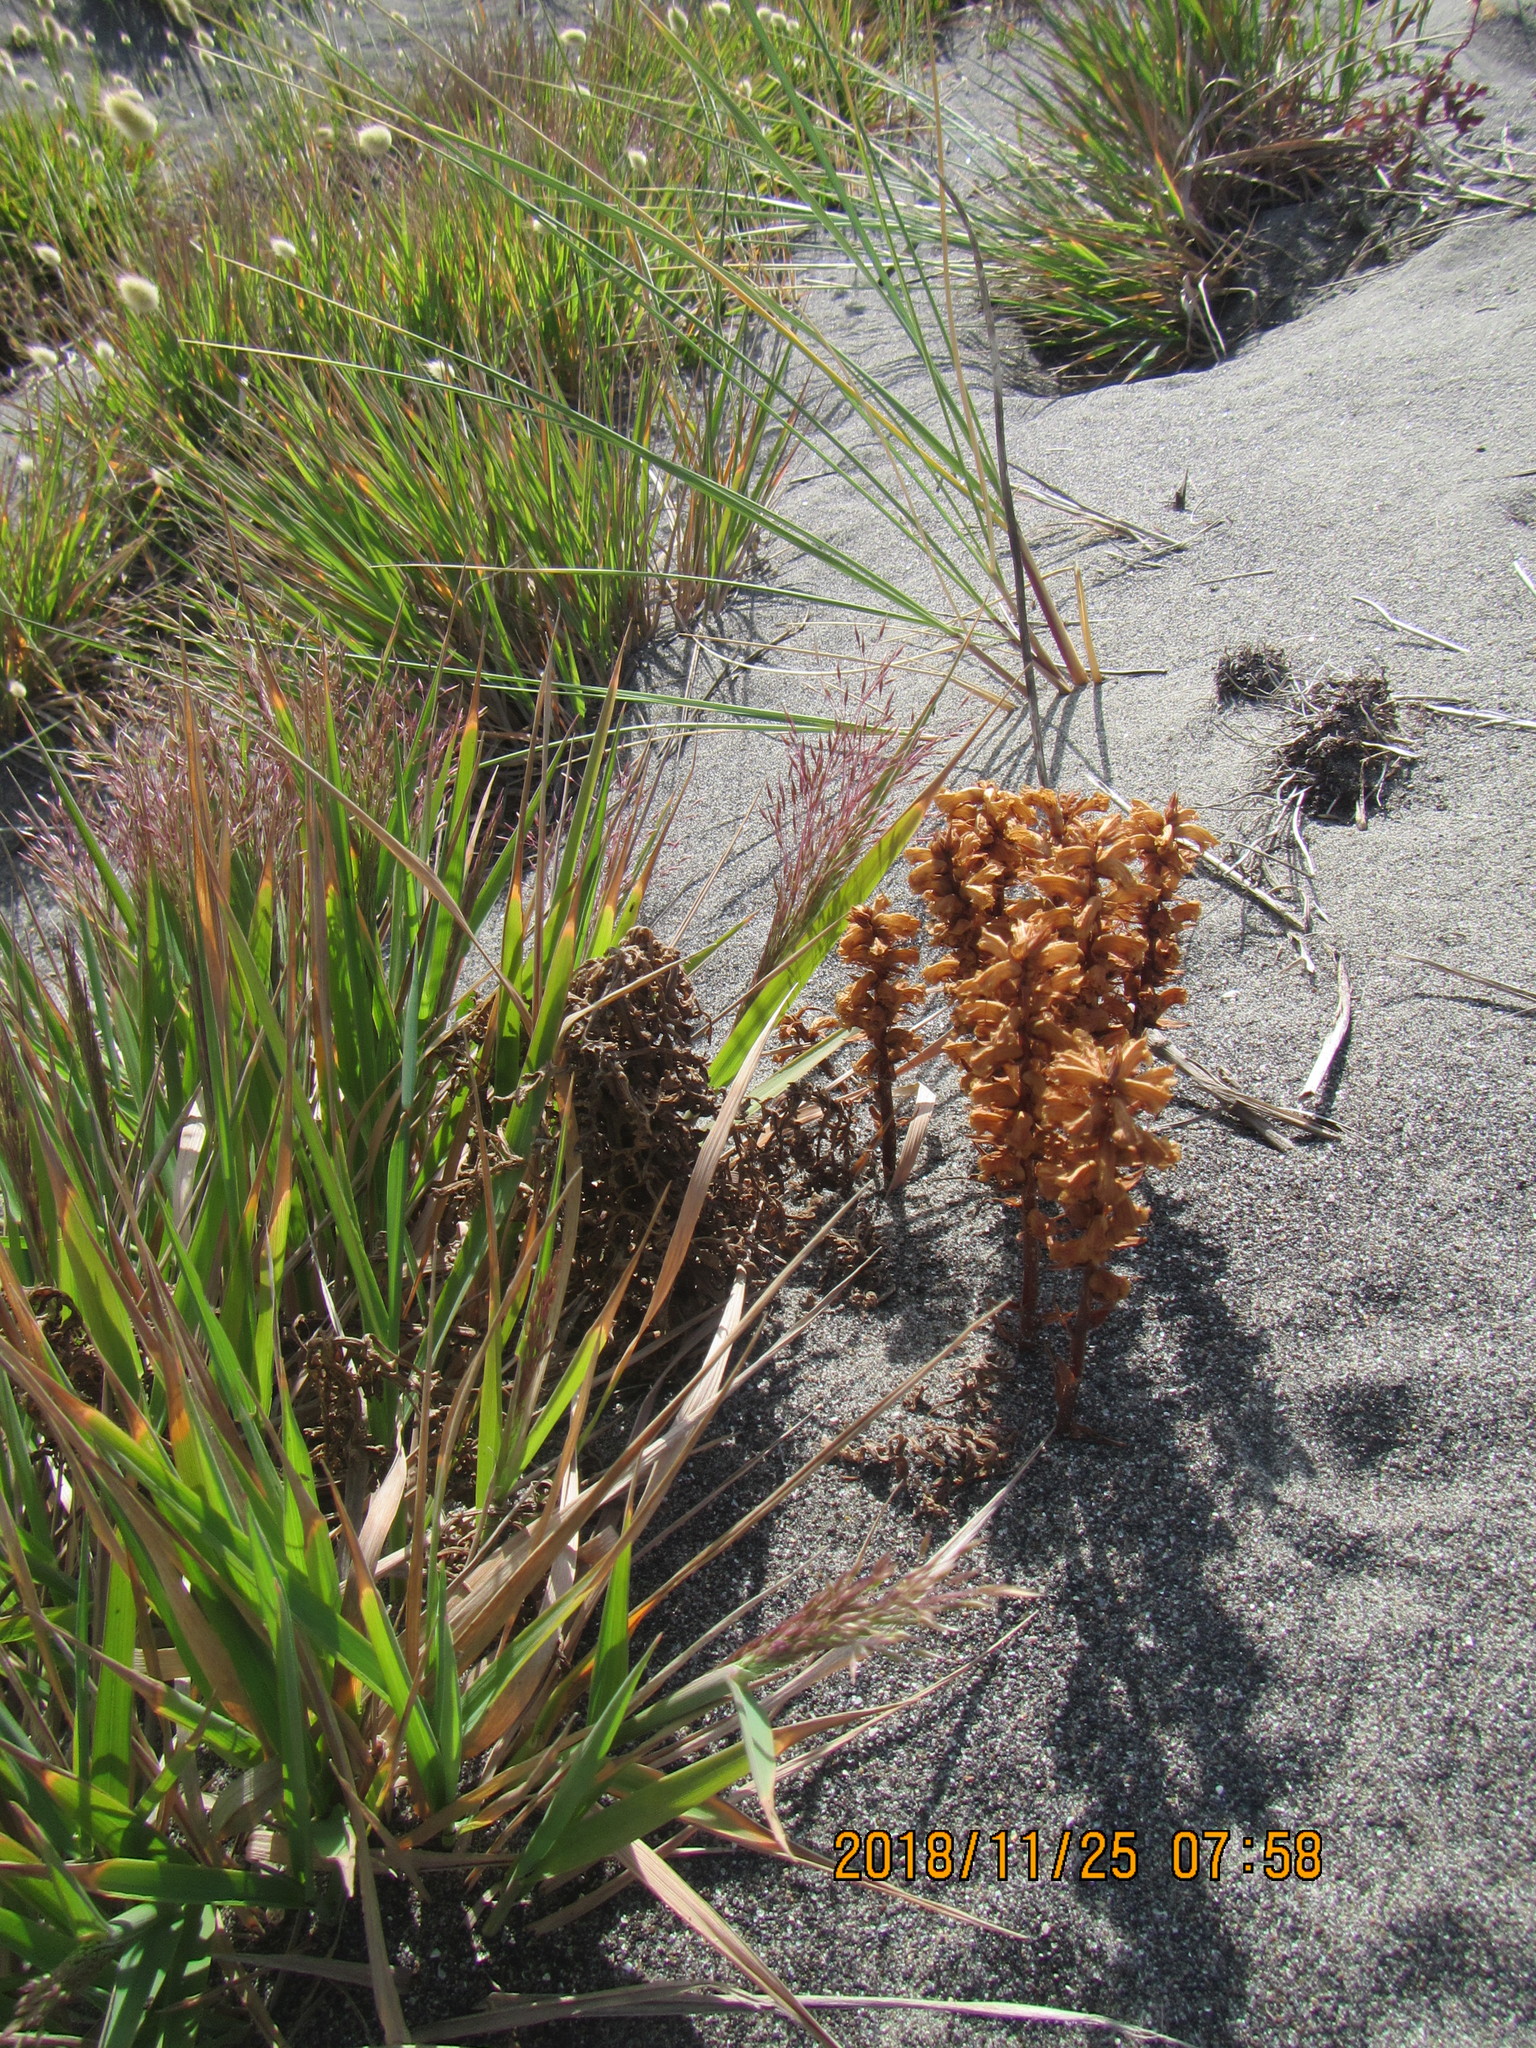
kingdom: Plantae
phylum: Tracheophyta
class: Magnoliopsida
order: Lamiales
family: Orobanchaceae
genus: Orobanche
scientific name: Orobanche minor
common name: Common broomrape
